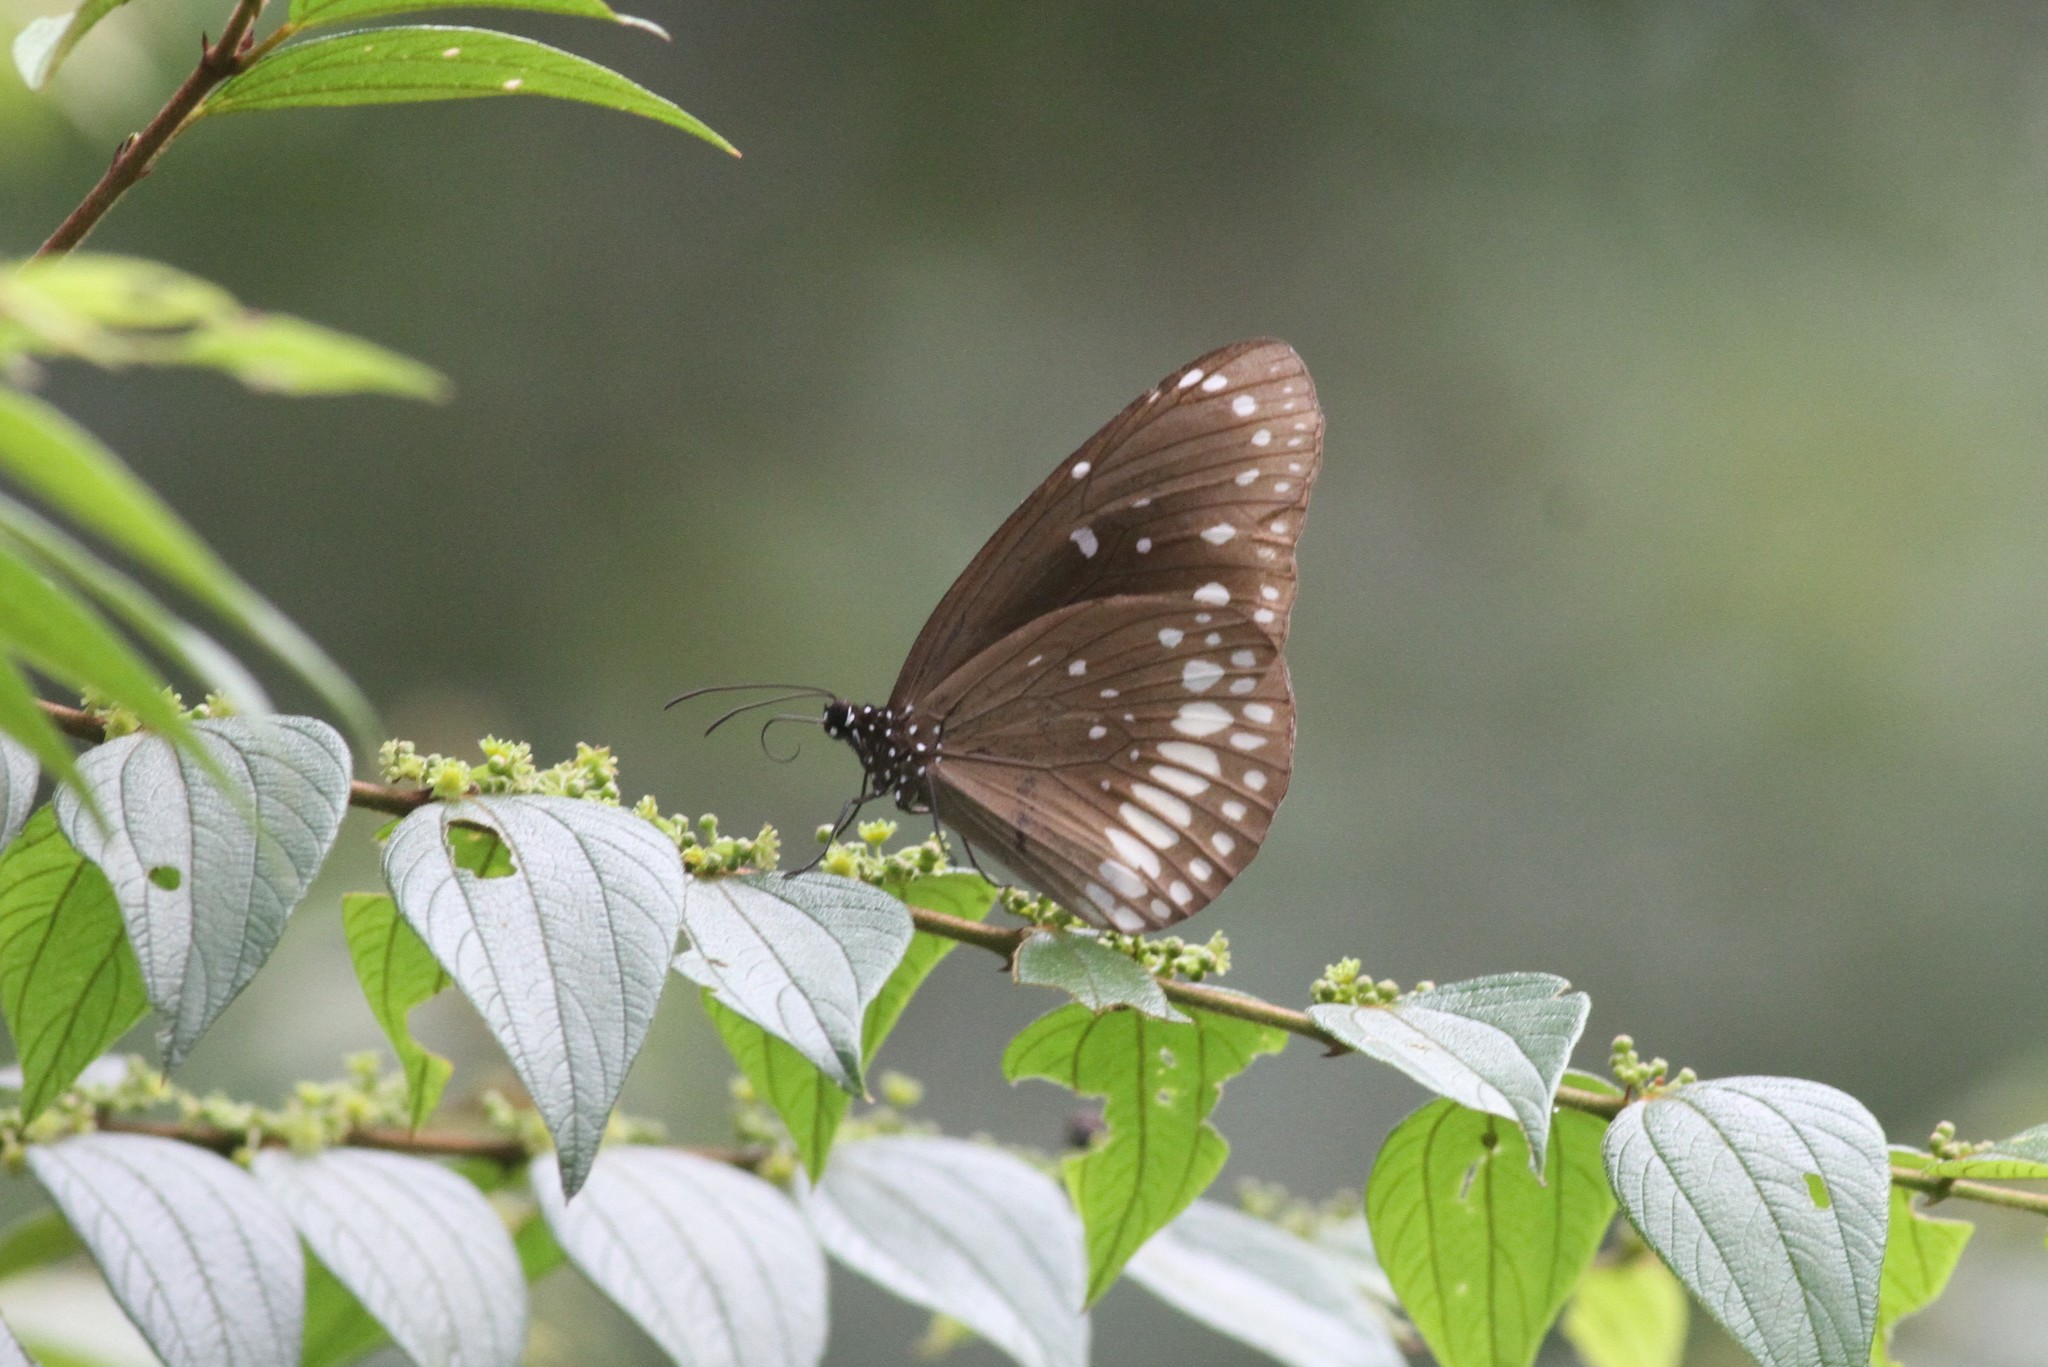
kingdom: Animalia
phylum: Arthropoda
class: Insecta
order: Lepidoptera
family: Nymphalidae
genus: Euploea
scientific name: Euploea core
